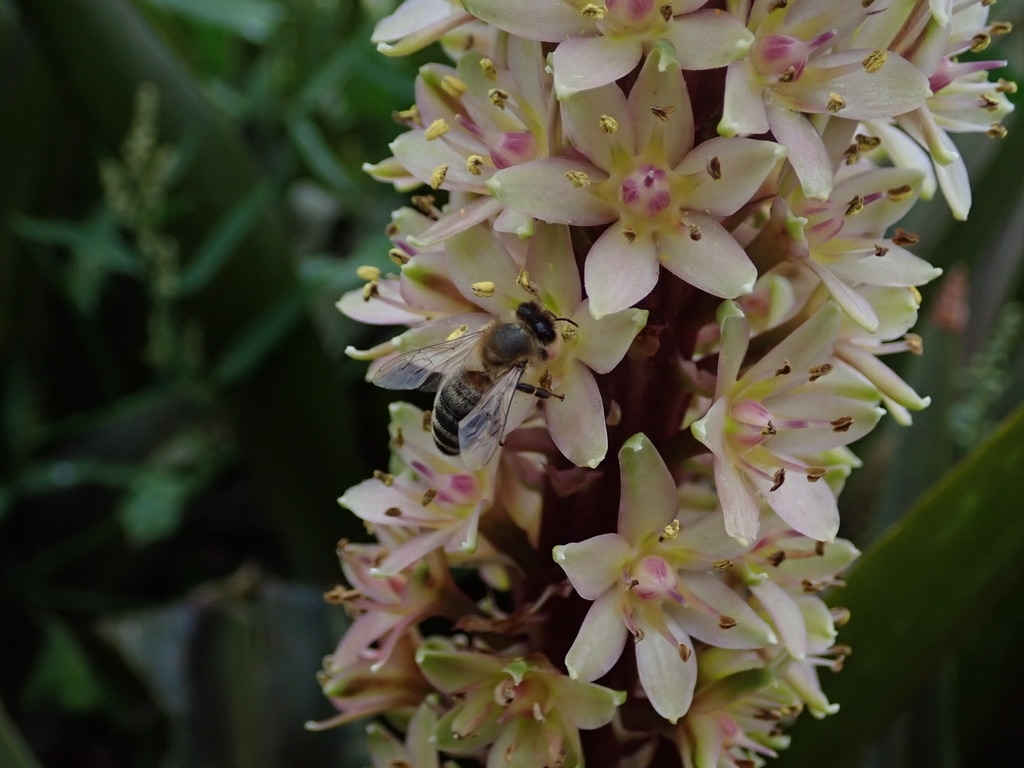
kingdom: Animalia
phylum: Arthropoda
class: Insecta
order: Hymenoptera
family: Apidae
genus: Apis
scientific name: Apis mellifera
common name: Honey bee
